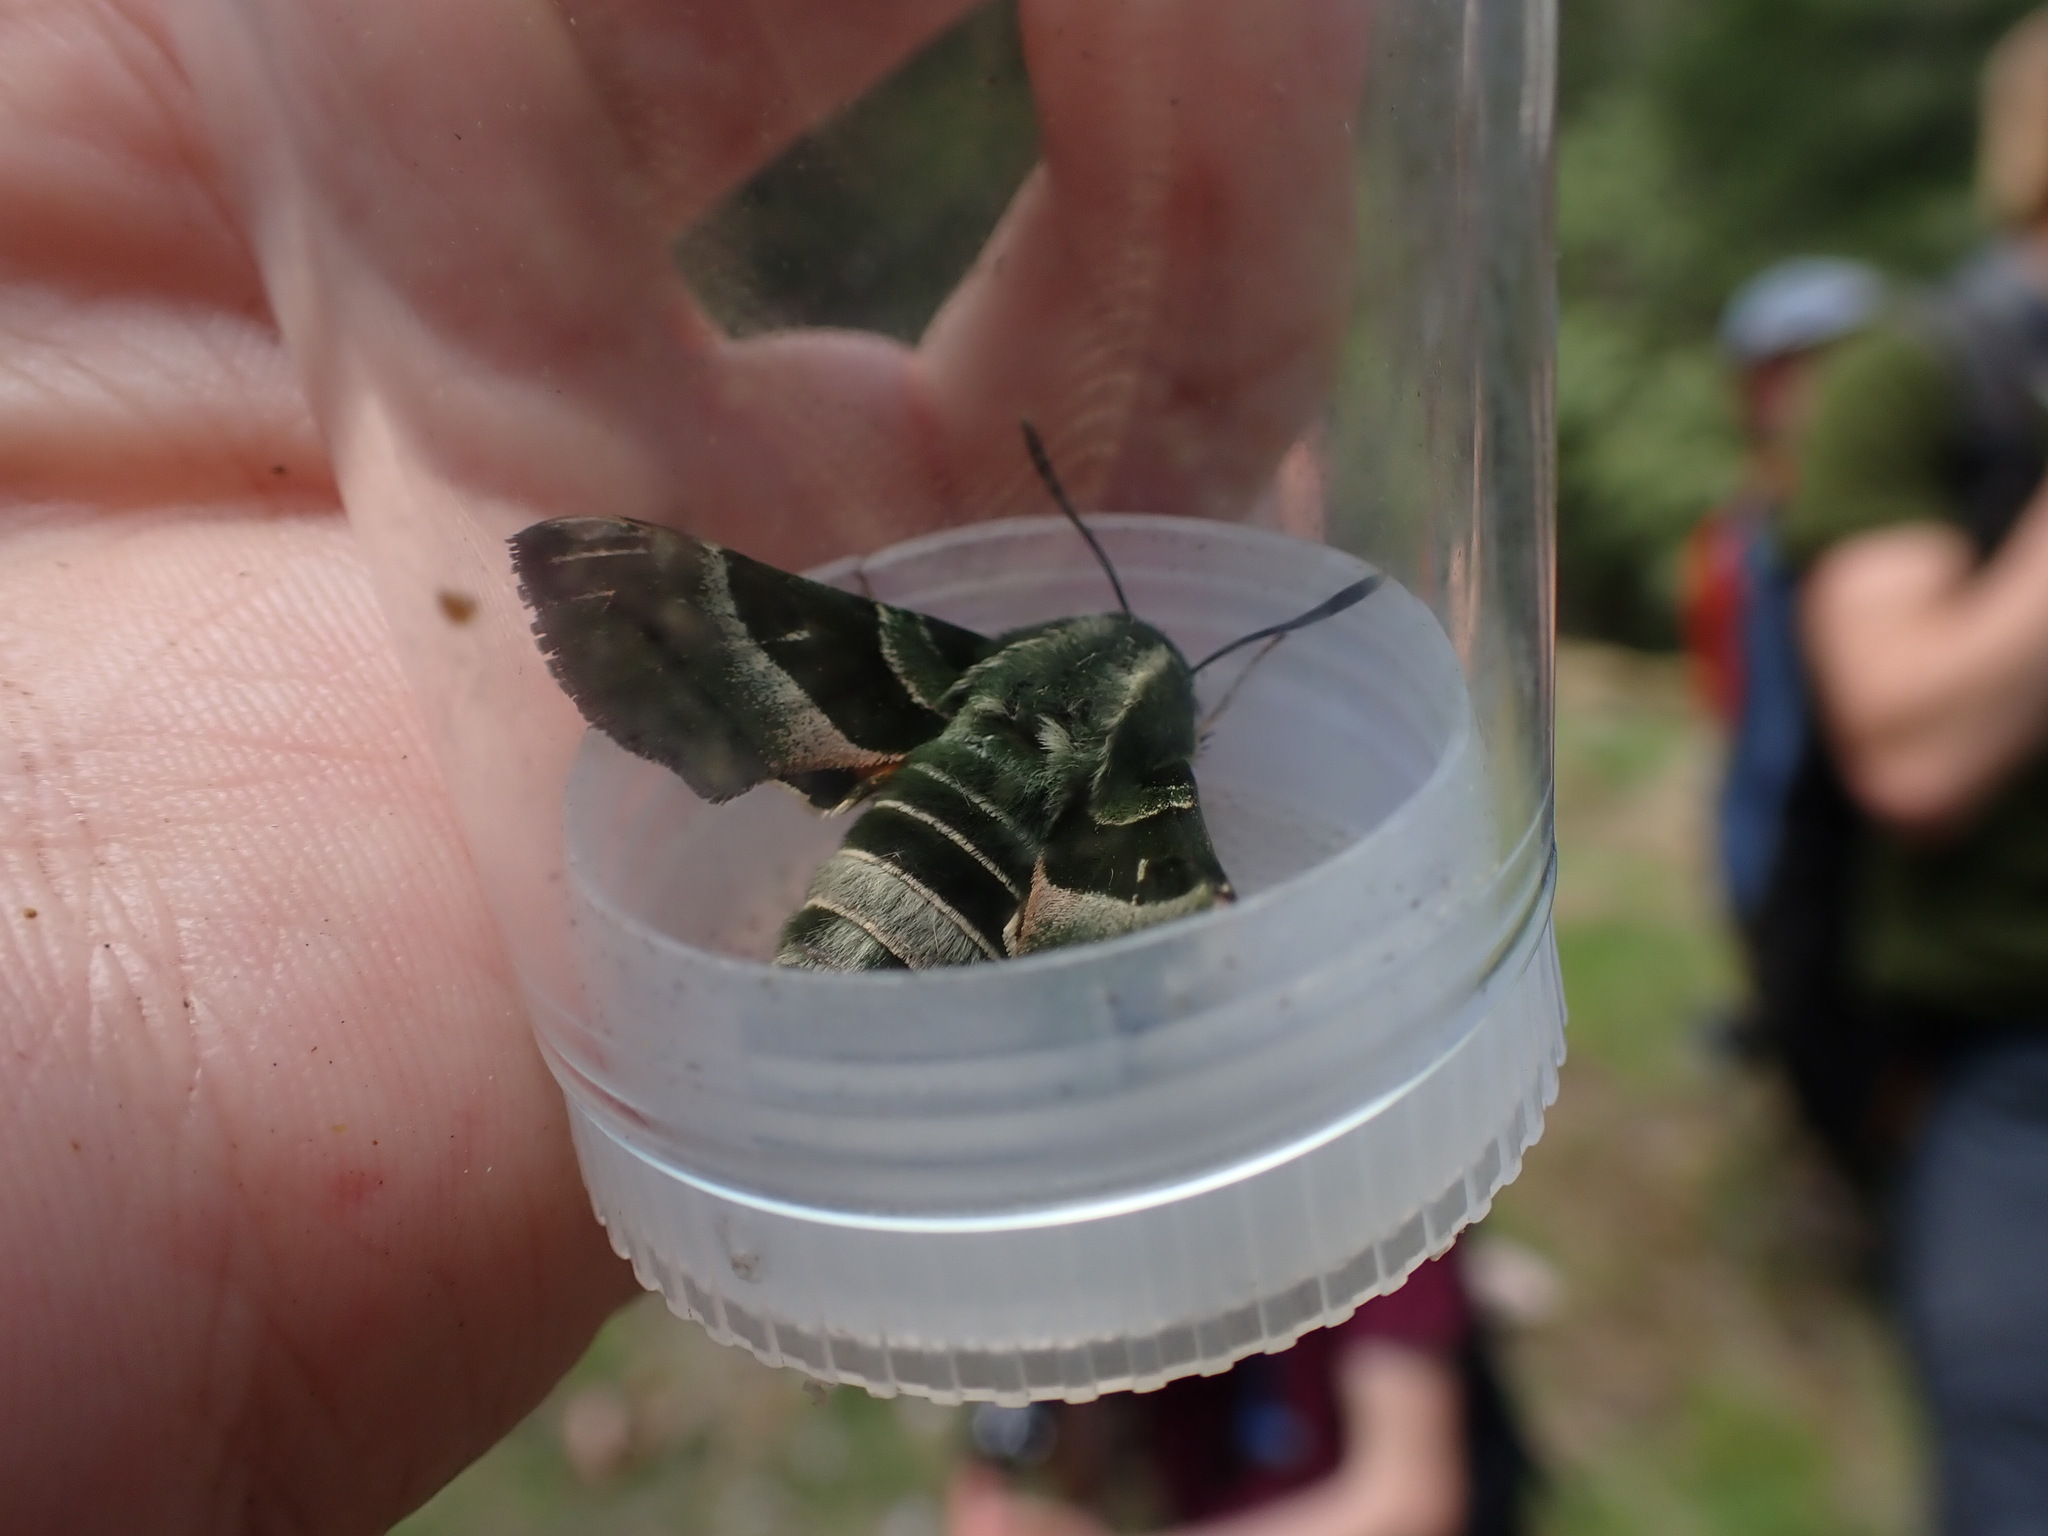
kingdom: Animalia
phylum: Arthropoda
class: Insecta
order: Lepidoptera
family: Sphingidae
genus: Proserpinus
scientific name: Proserpinus clarkiae
